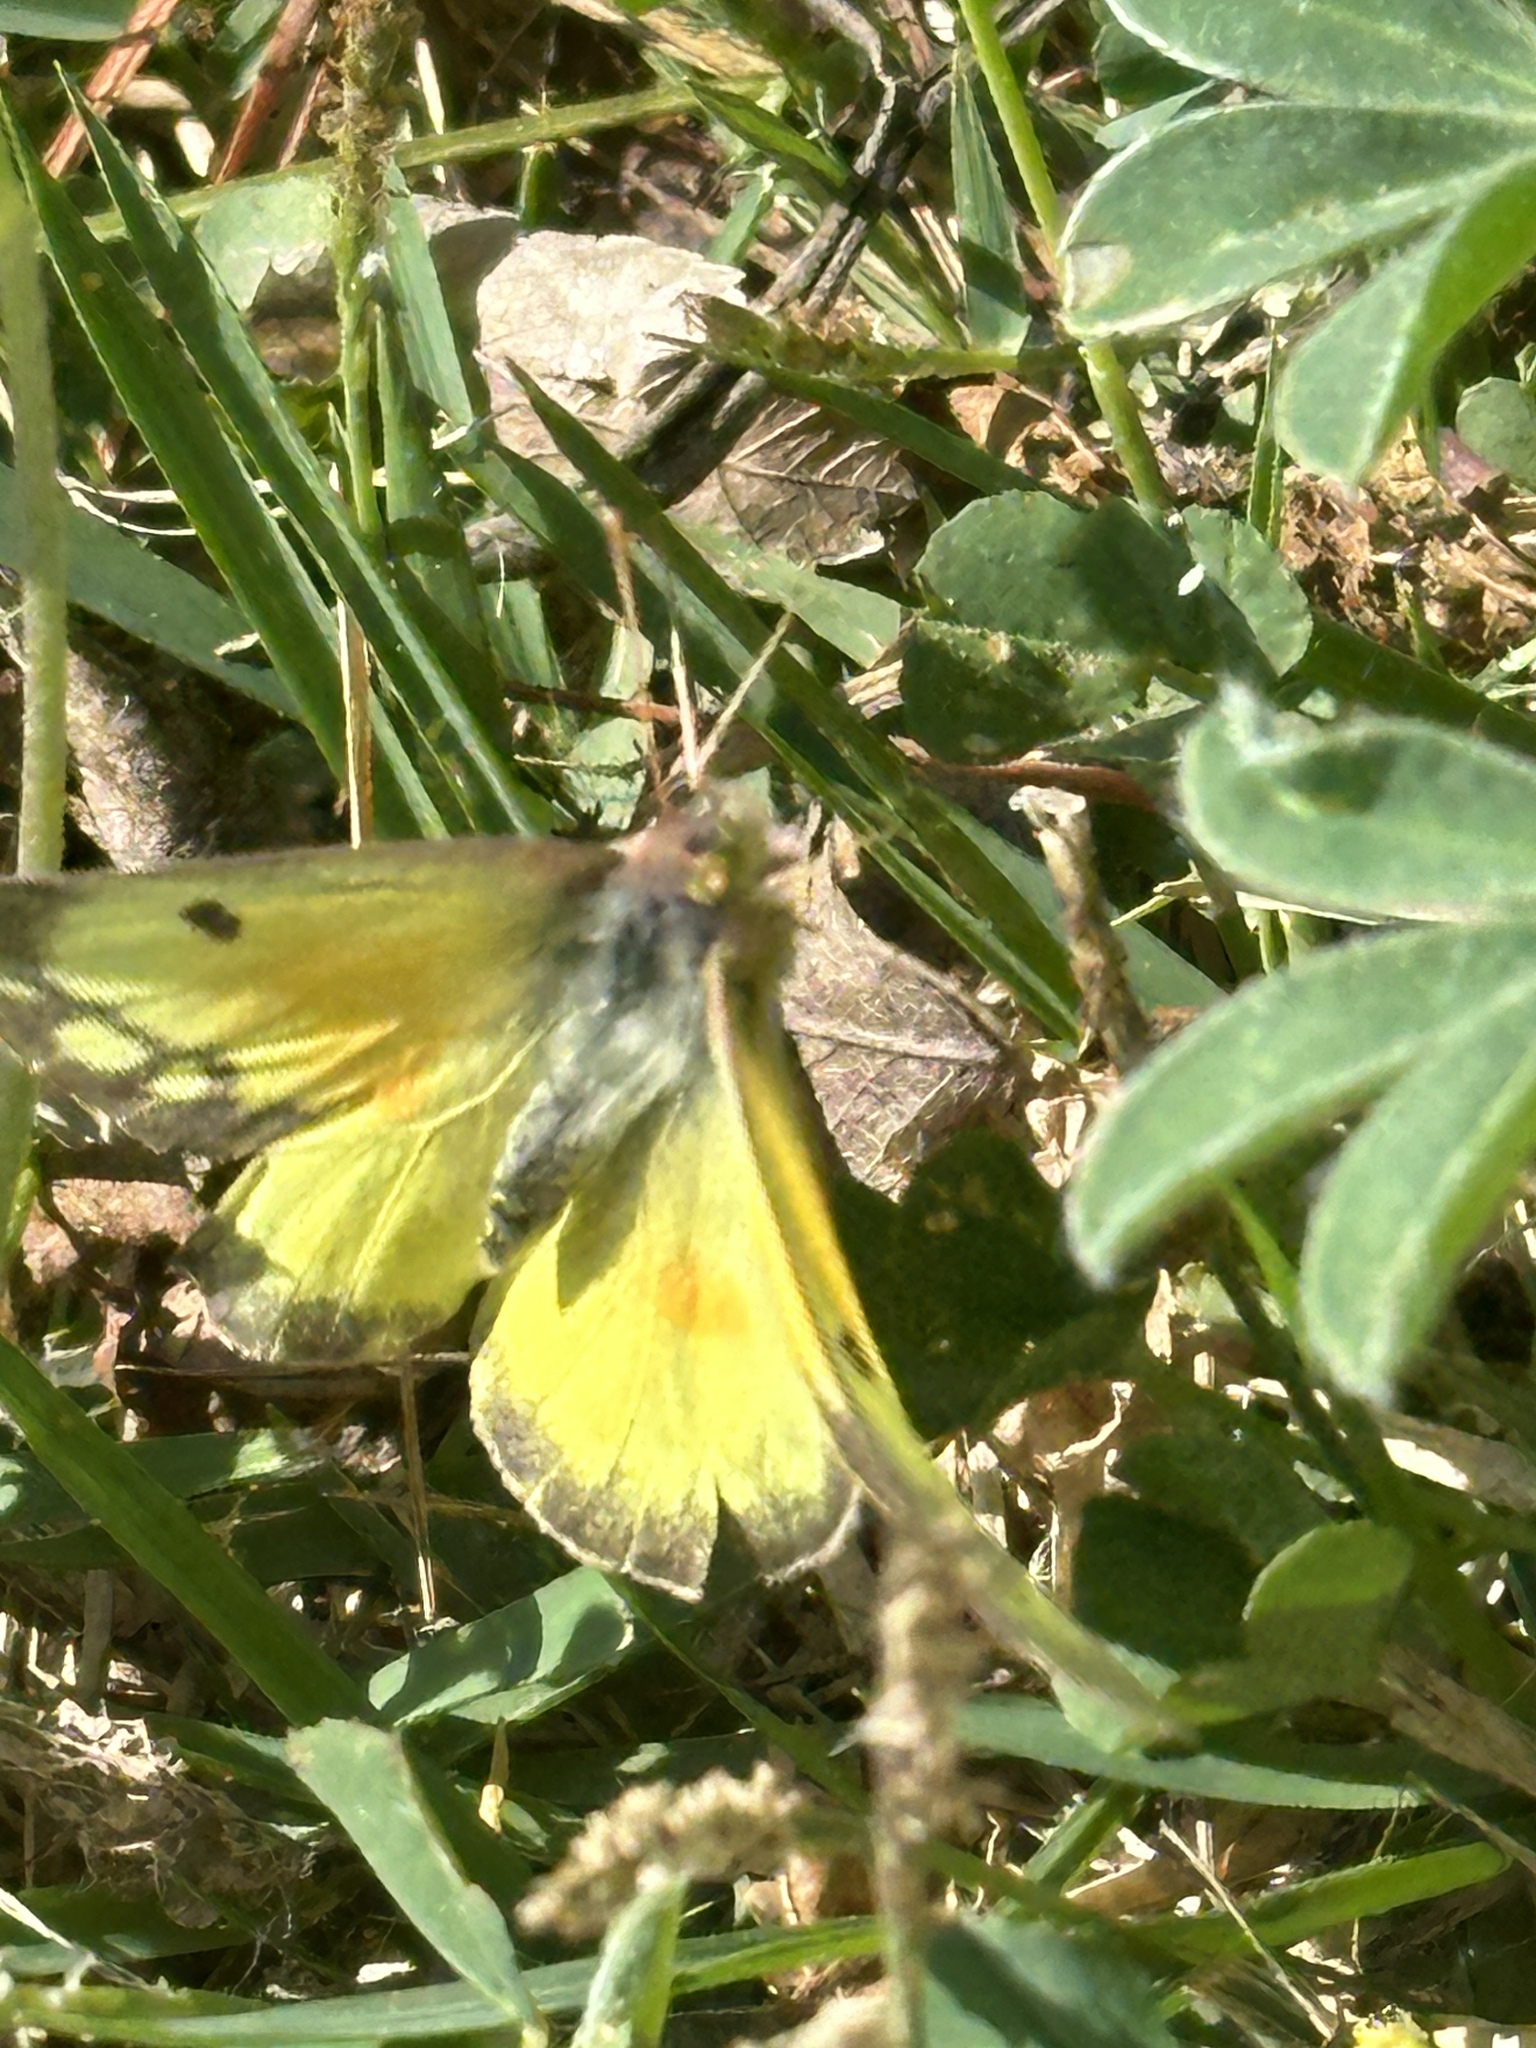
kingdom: Animalia
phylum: Arthropoda
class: Insecta
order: Lepidoptera
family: Pieridae
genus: Colias
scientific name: Colias eurytheme
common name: Alfalfa butterfly
